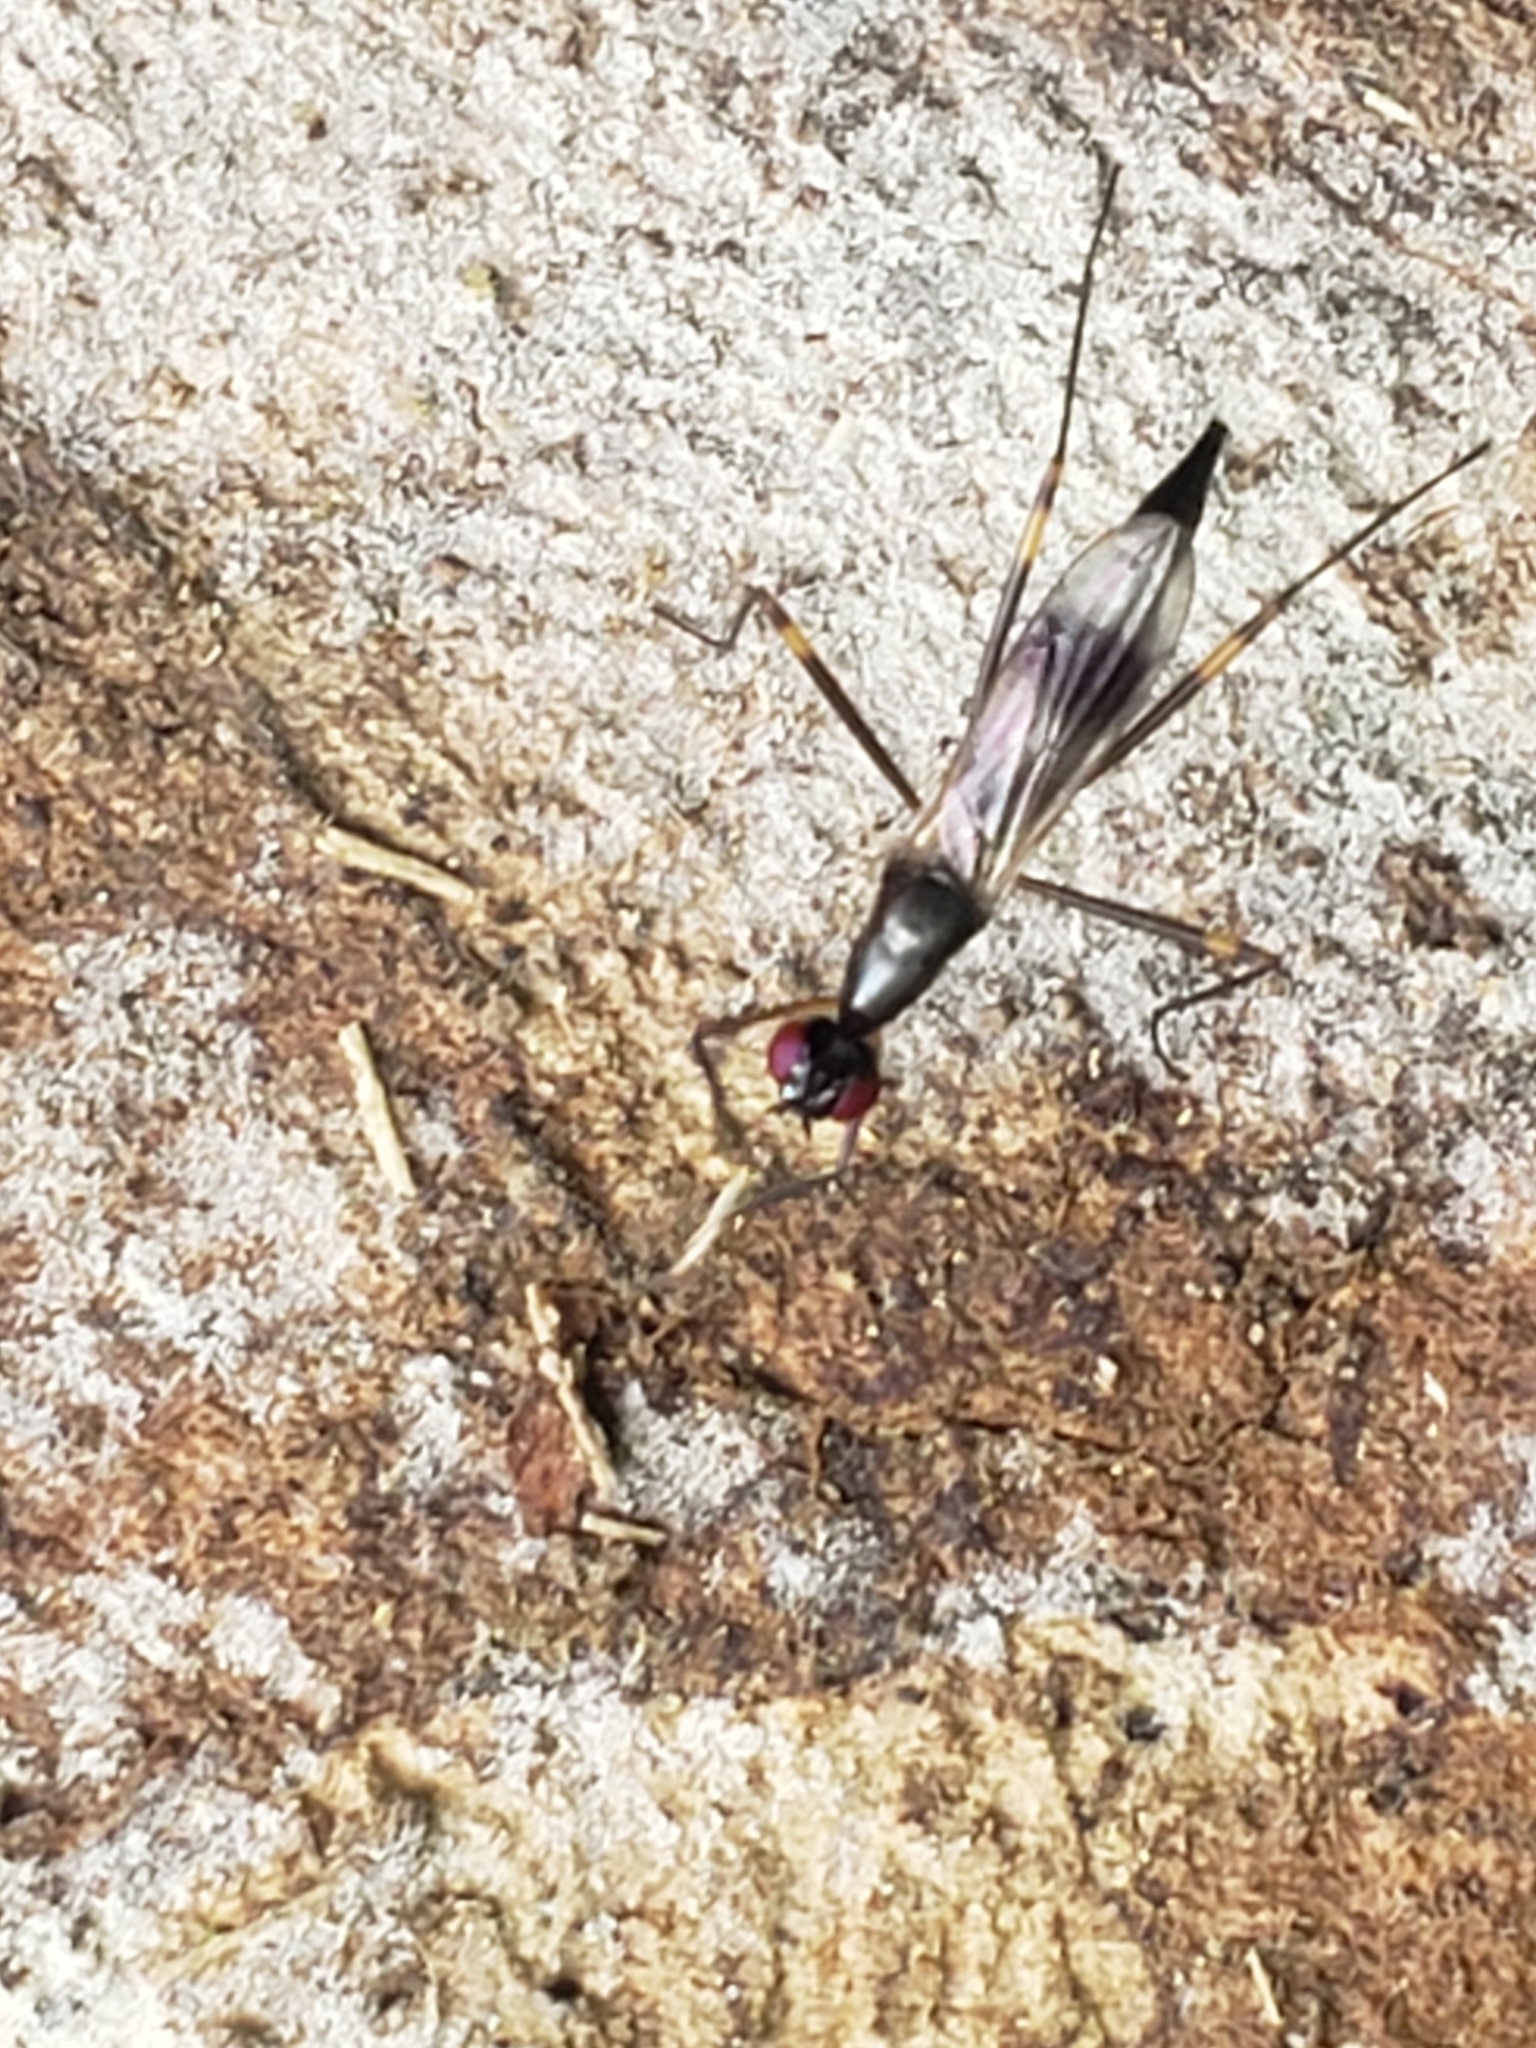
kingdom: Animalia
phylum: Arthropoda
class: Insecta
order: Diptera
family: Micropezidae
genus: Rainieria
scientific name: Rainieria antennaepes
